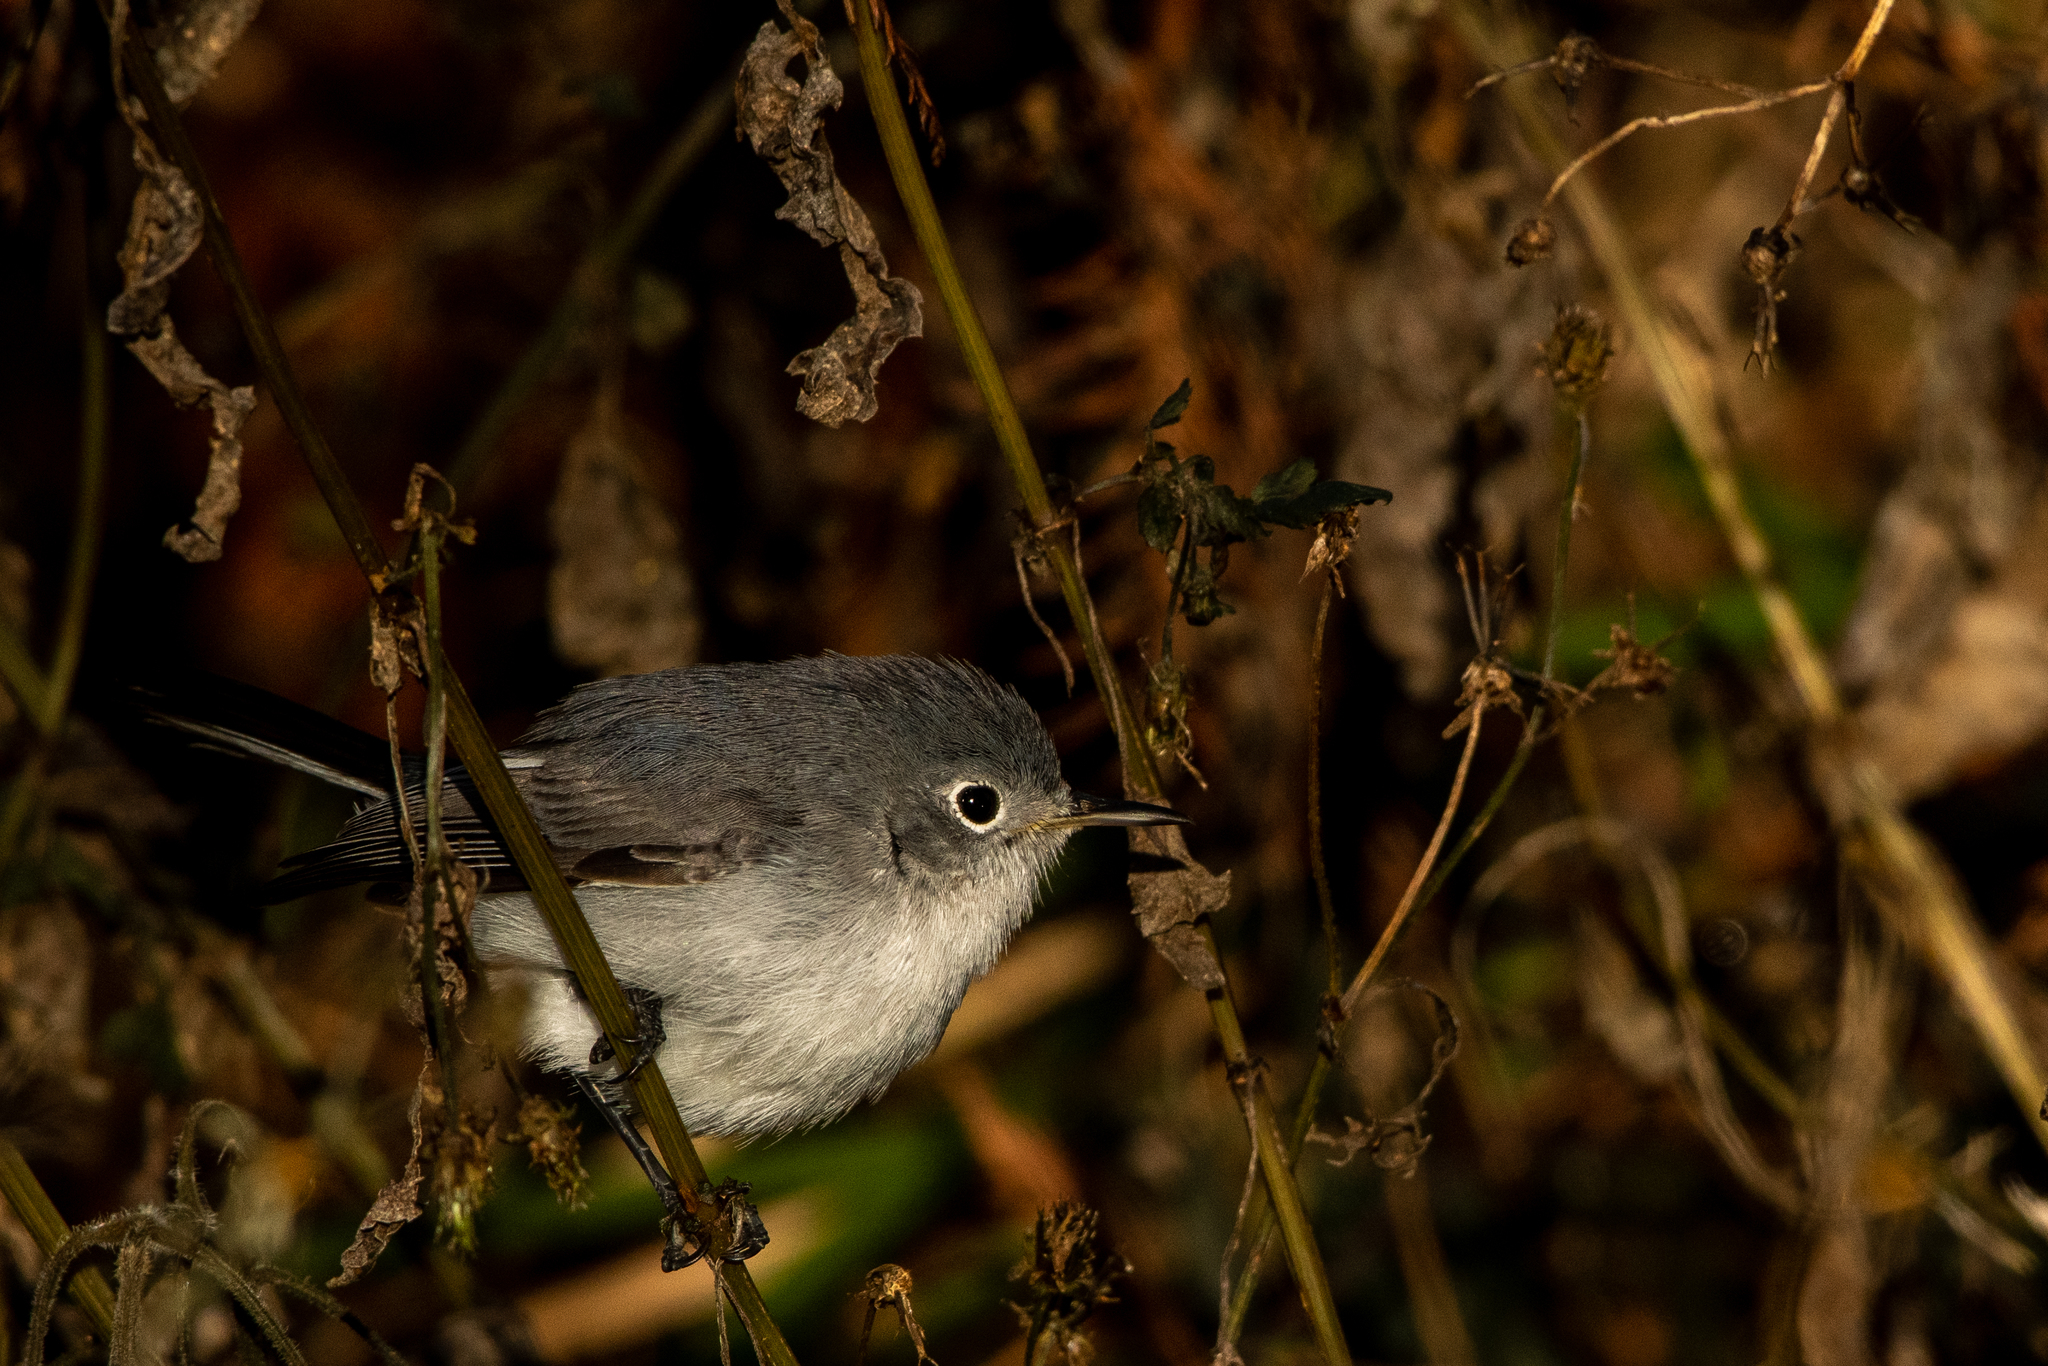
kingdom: Animalia
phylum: Chordata
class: Aves
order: Passeriformes
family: Polioptilidae
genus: Polioptila
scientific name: Polioptila caerulea
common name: Blue-gray gnatcatcher
